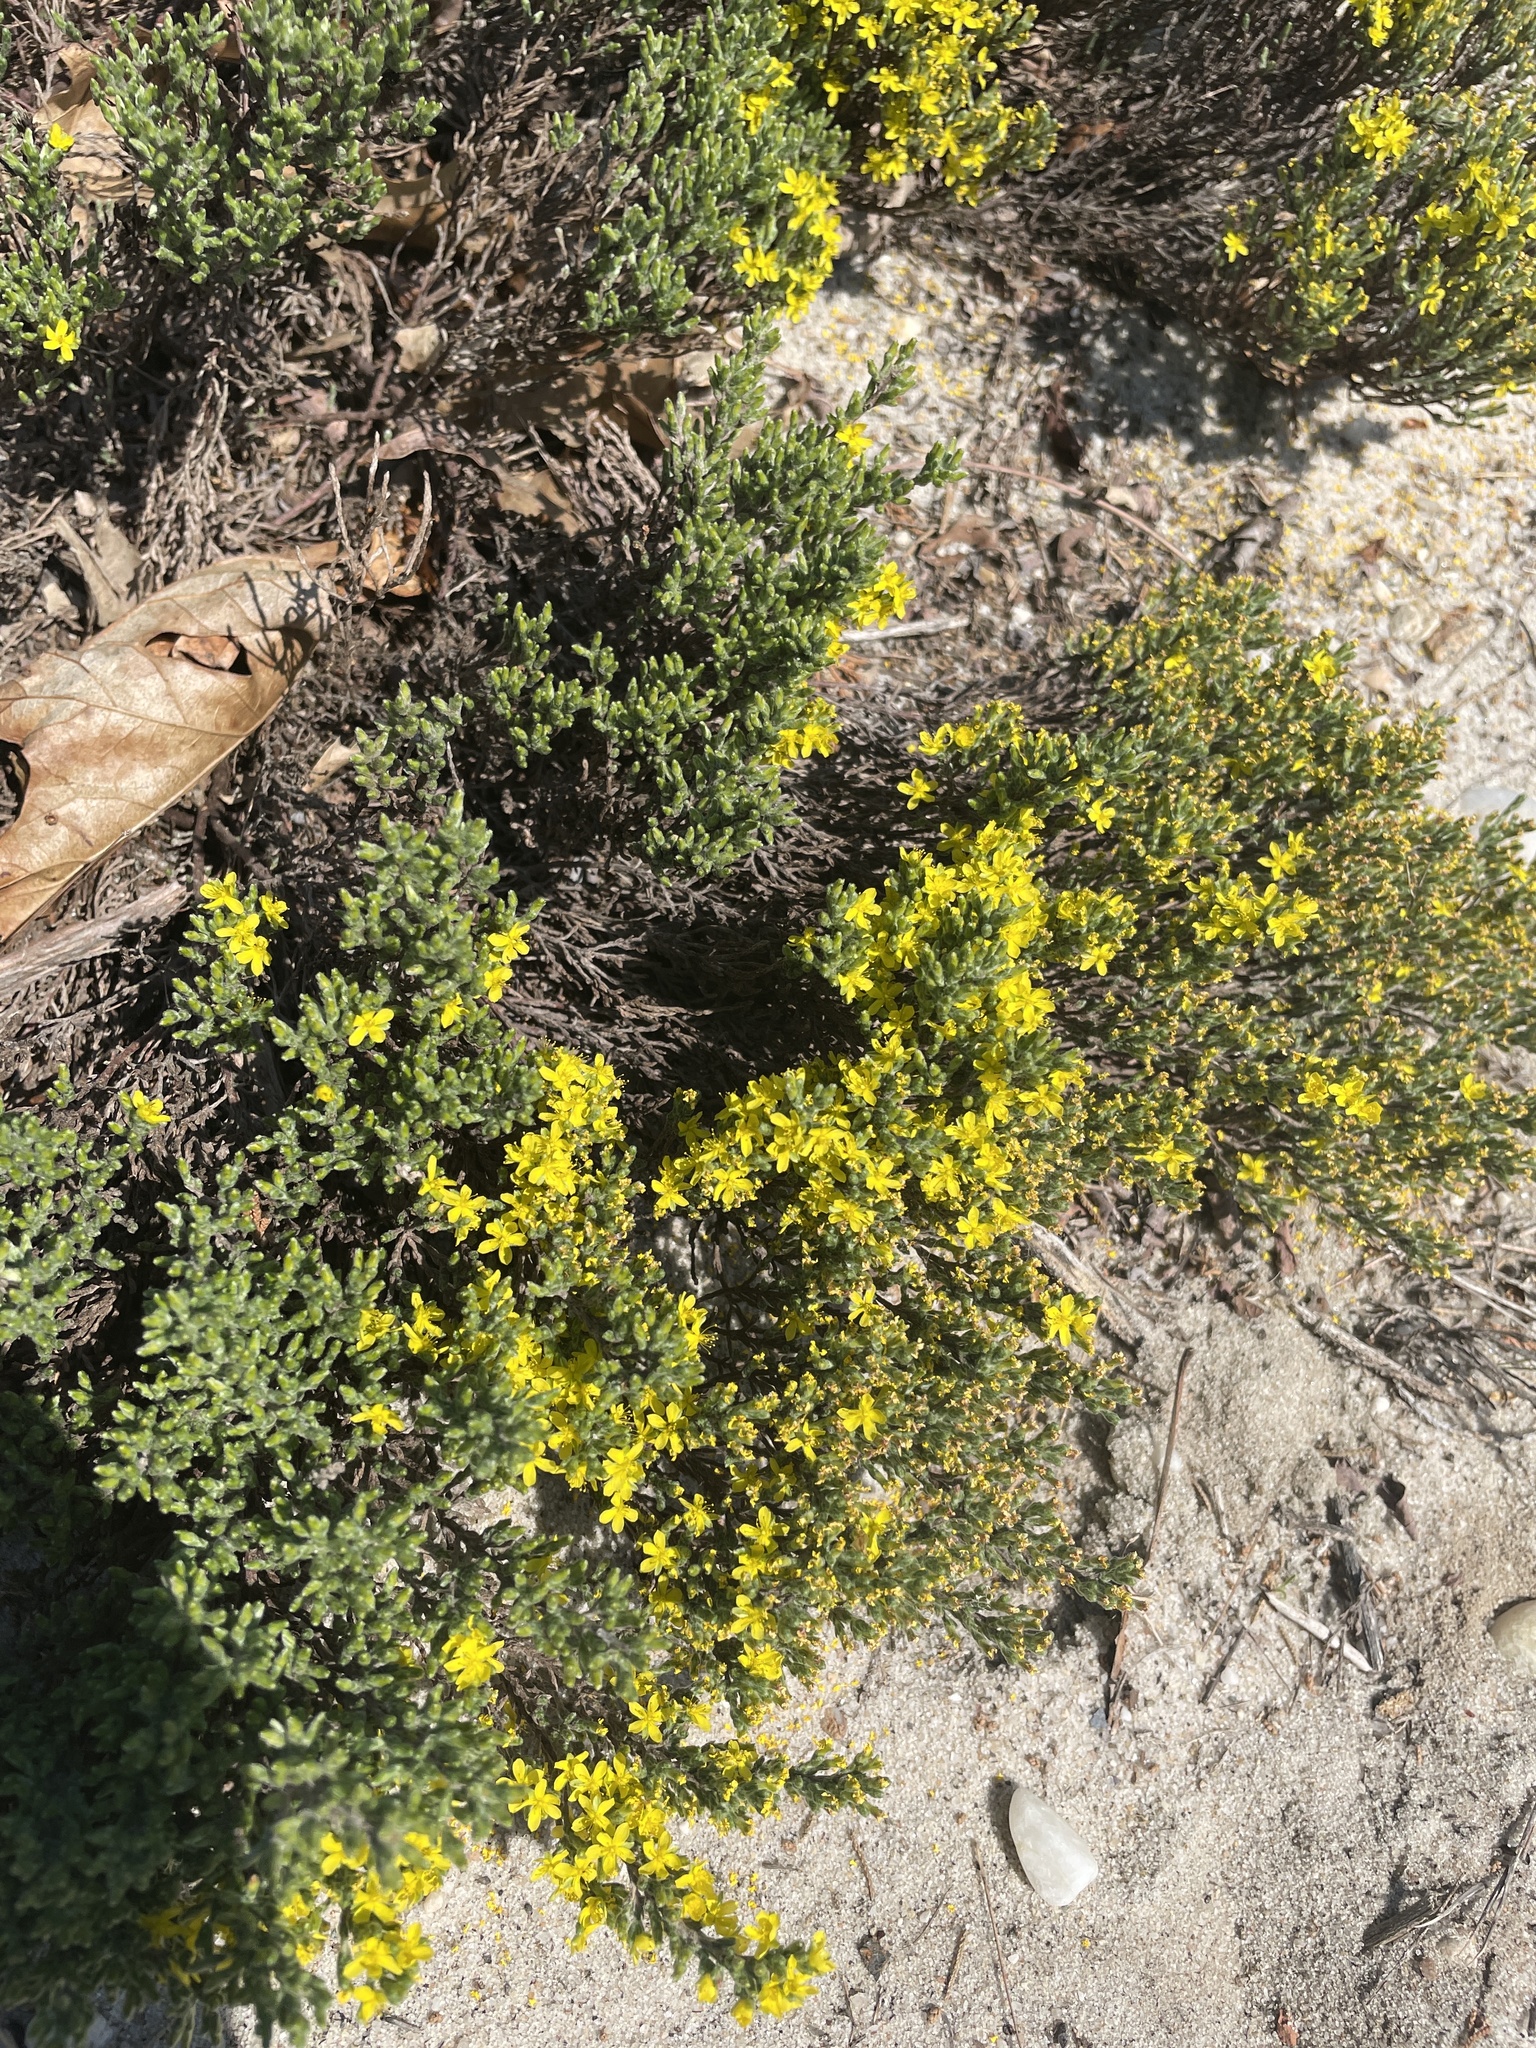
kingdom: Plantae
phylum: Tracheophyta
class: Magnoliopsida
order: Malvales
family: Cistaceae
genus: Hudsonia
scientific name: Hudsonia tomentosa
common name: Beach-heath
